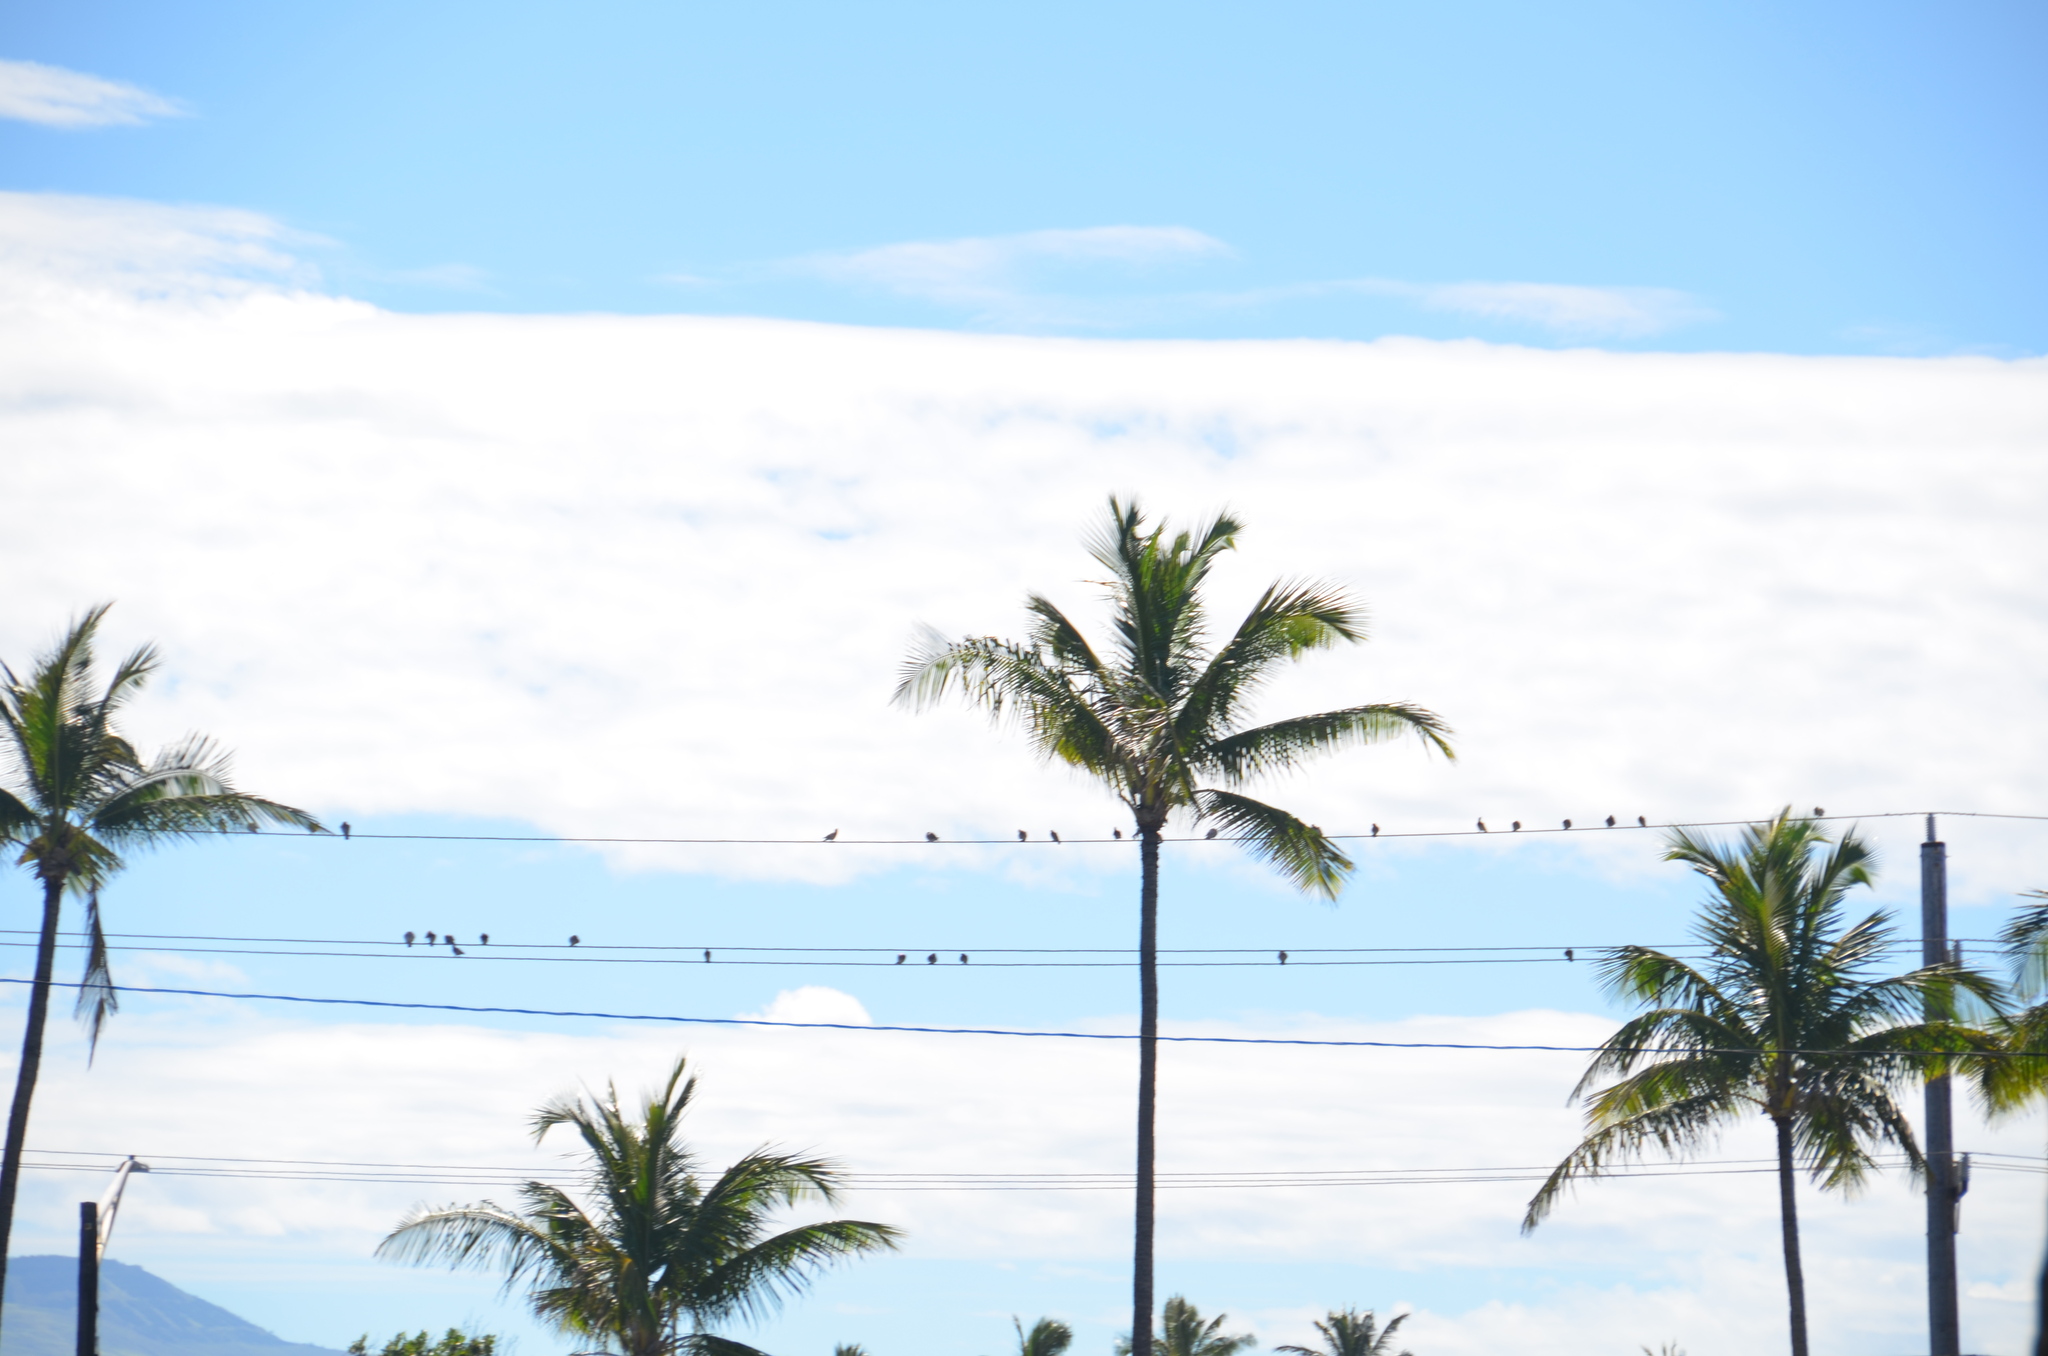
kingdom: Animalia
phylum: Chordata
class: Aves
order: Columbiformes
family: Columbidae
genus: Columba
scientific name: Columba livia
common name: Rock pigeon
